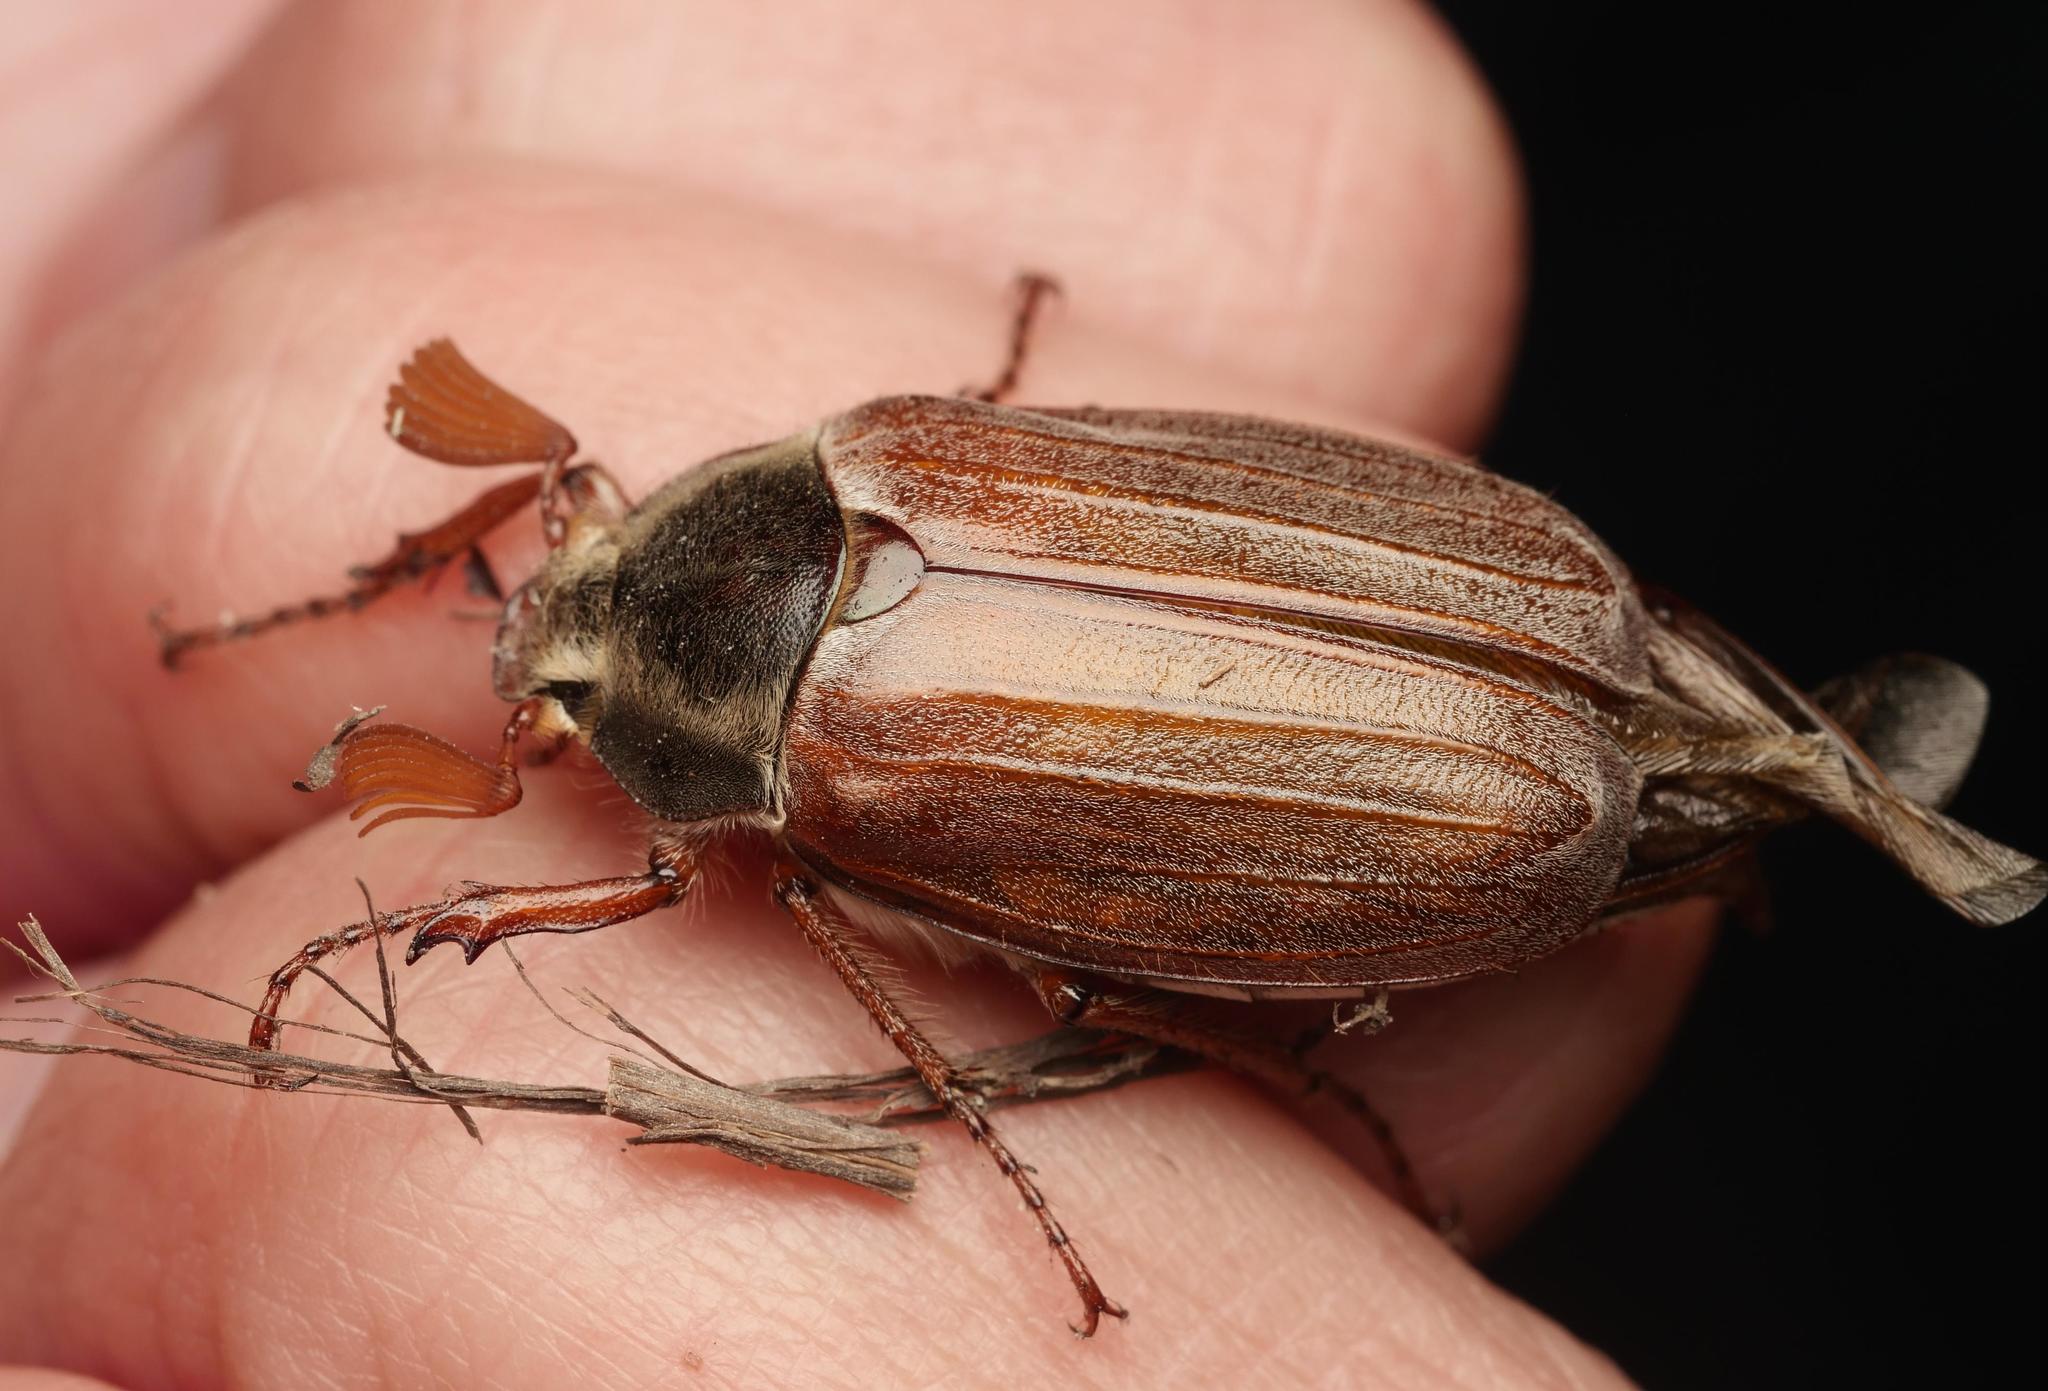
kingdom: Animalia
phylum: Arthropoda
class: Insecta
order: Coleoptera
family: Scarabaeidae
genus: Melolontha
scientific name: Melolontha melolontha
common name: Cockchafer maybeetle
